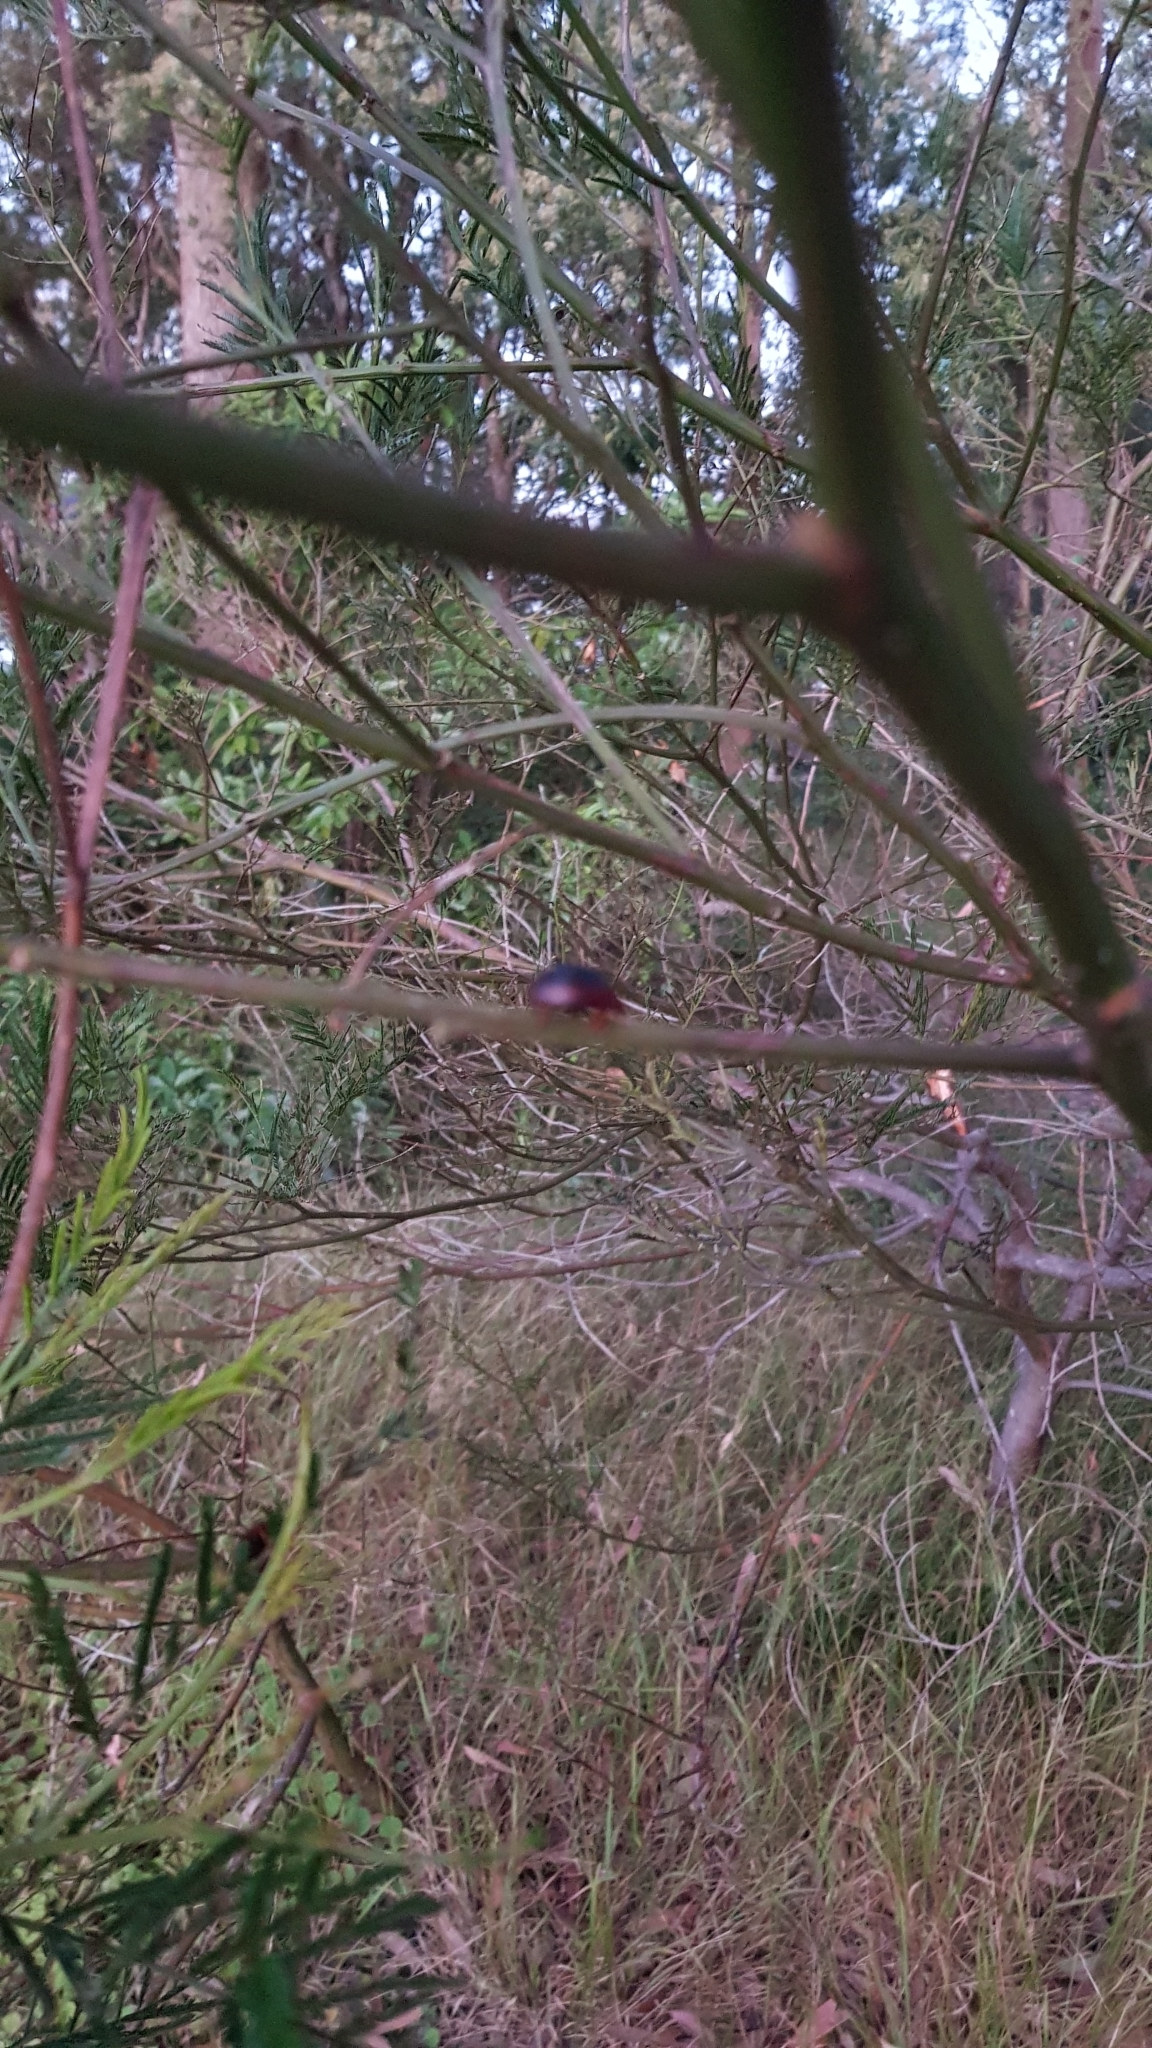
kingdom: Animalia
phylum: Arthropoda
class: Insecta
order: Coleoptera
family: Chrysomelidae
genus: Dicranosterna
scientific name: Dicranosterna
